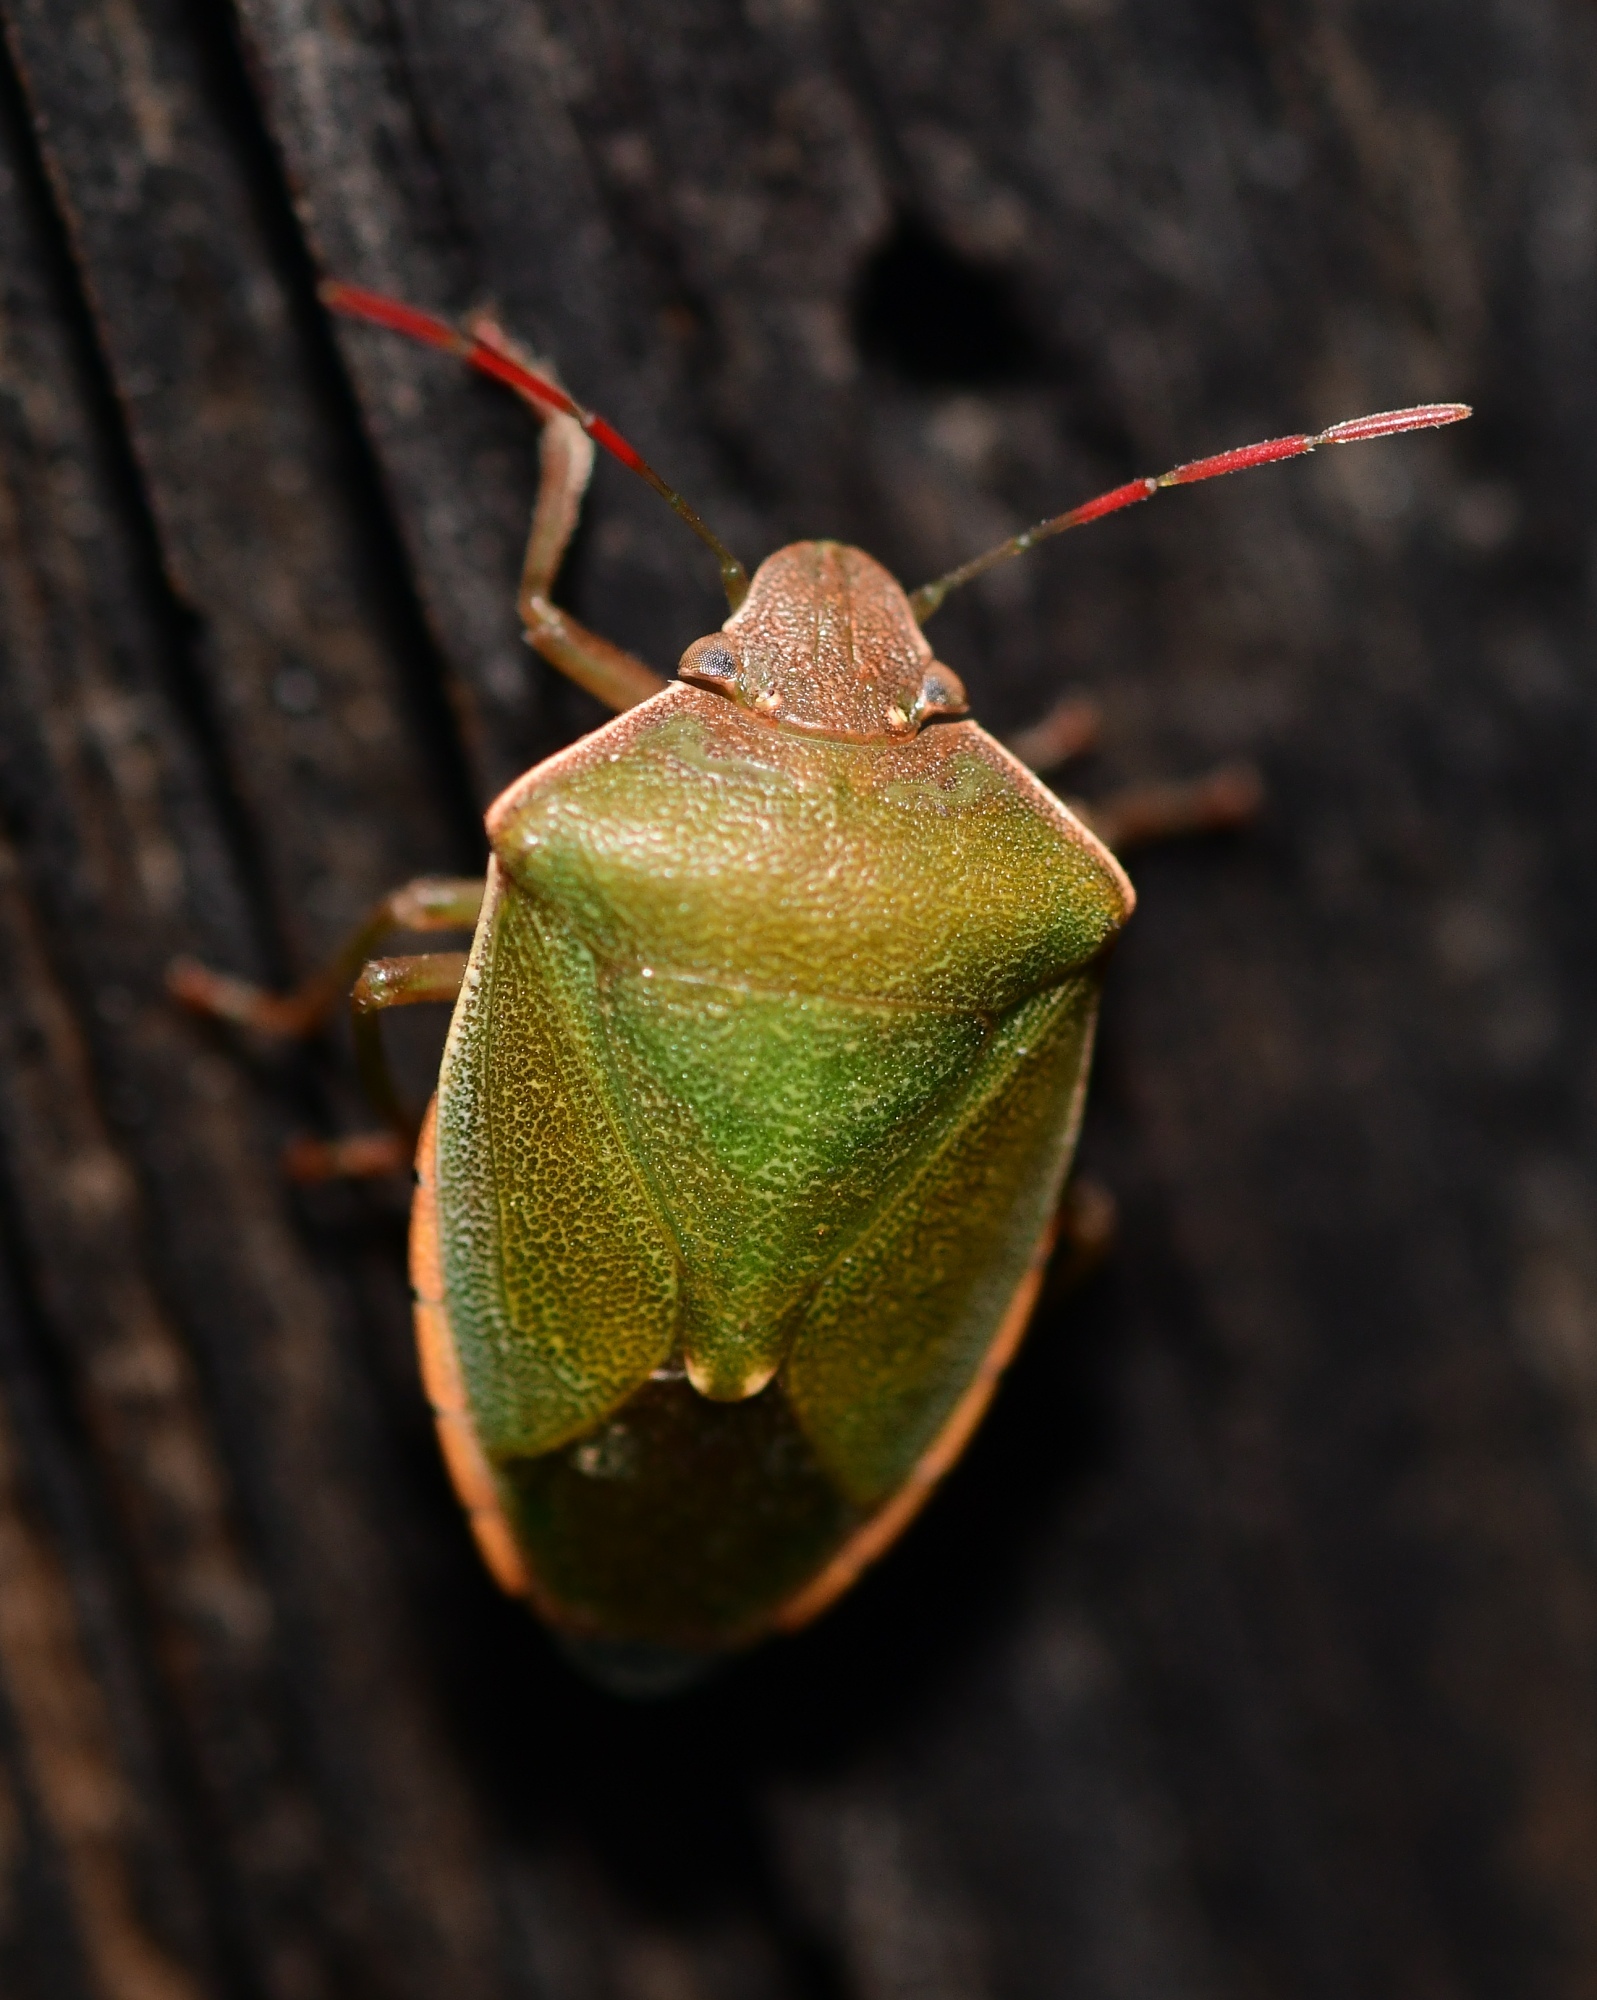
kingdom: Animalia
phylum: Arthropoda
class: Insecta
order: Hemiptera
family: Pentatomidae
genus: Acrosternum
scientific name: Acrosternum heegeri
